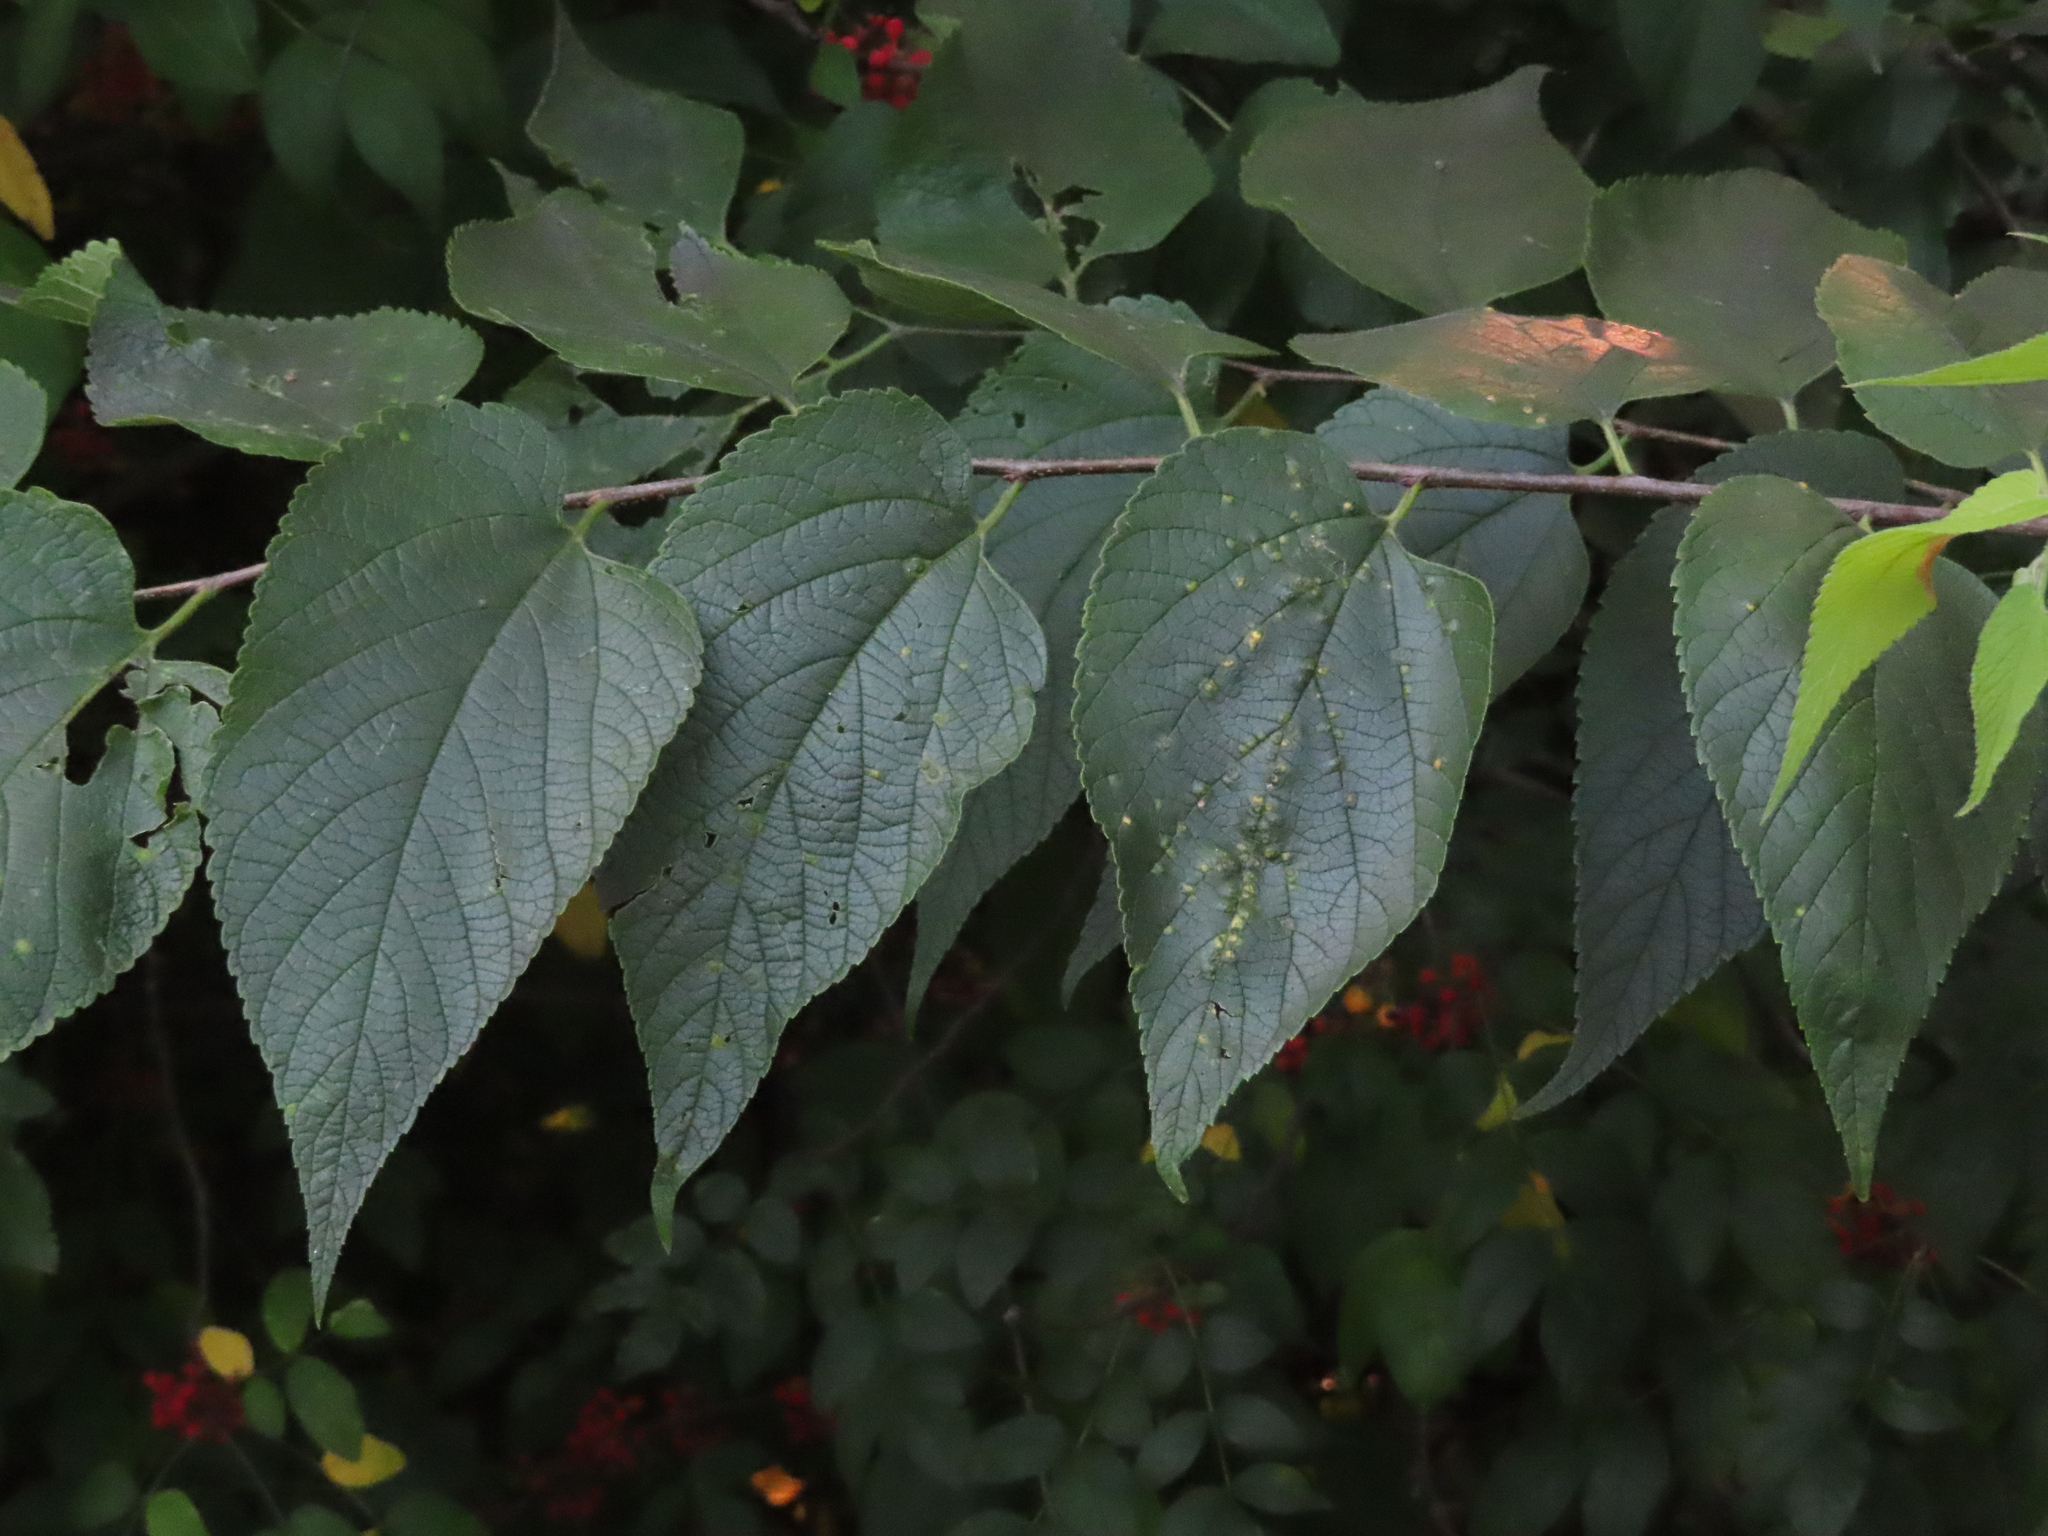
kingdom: Animalia
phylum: Arthropoda
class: Insecta
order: Hemiptera
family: Aphalaridae
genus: Pachypsylla
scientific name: Pachypsylla celtidisvesicula
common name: Hackberry blister gall psyllid
